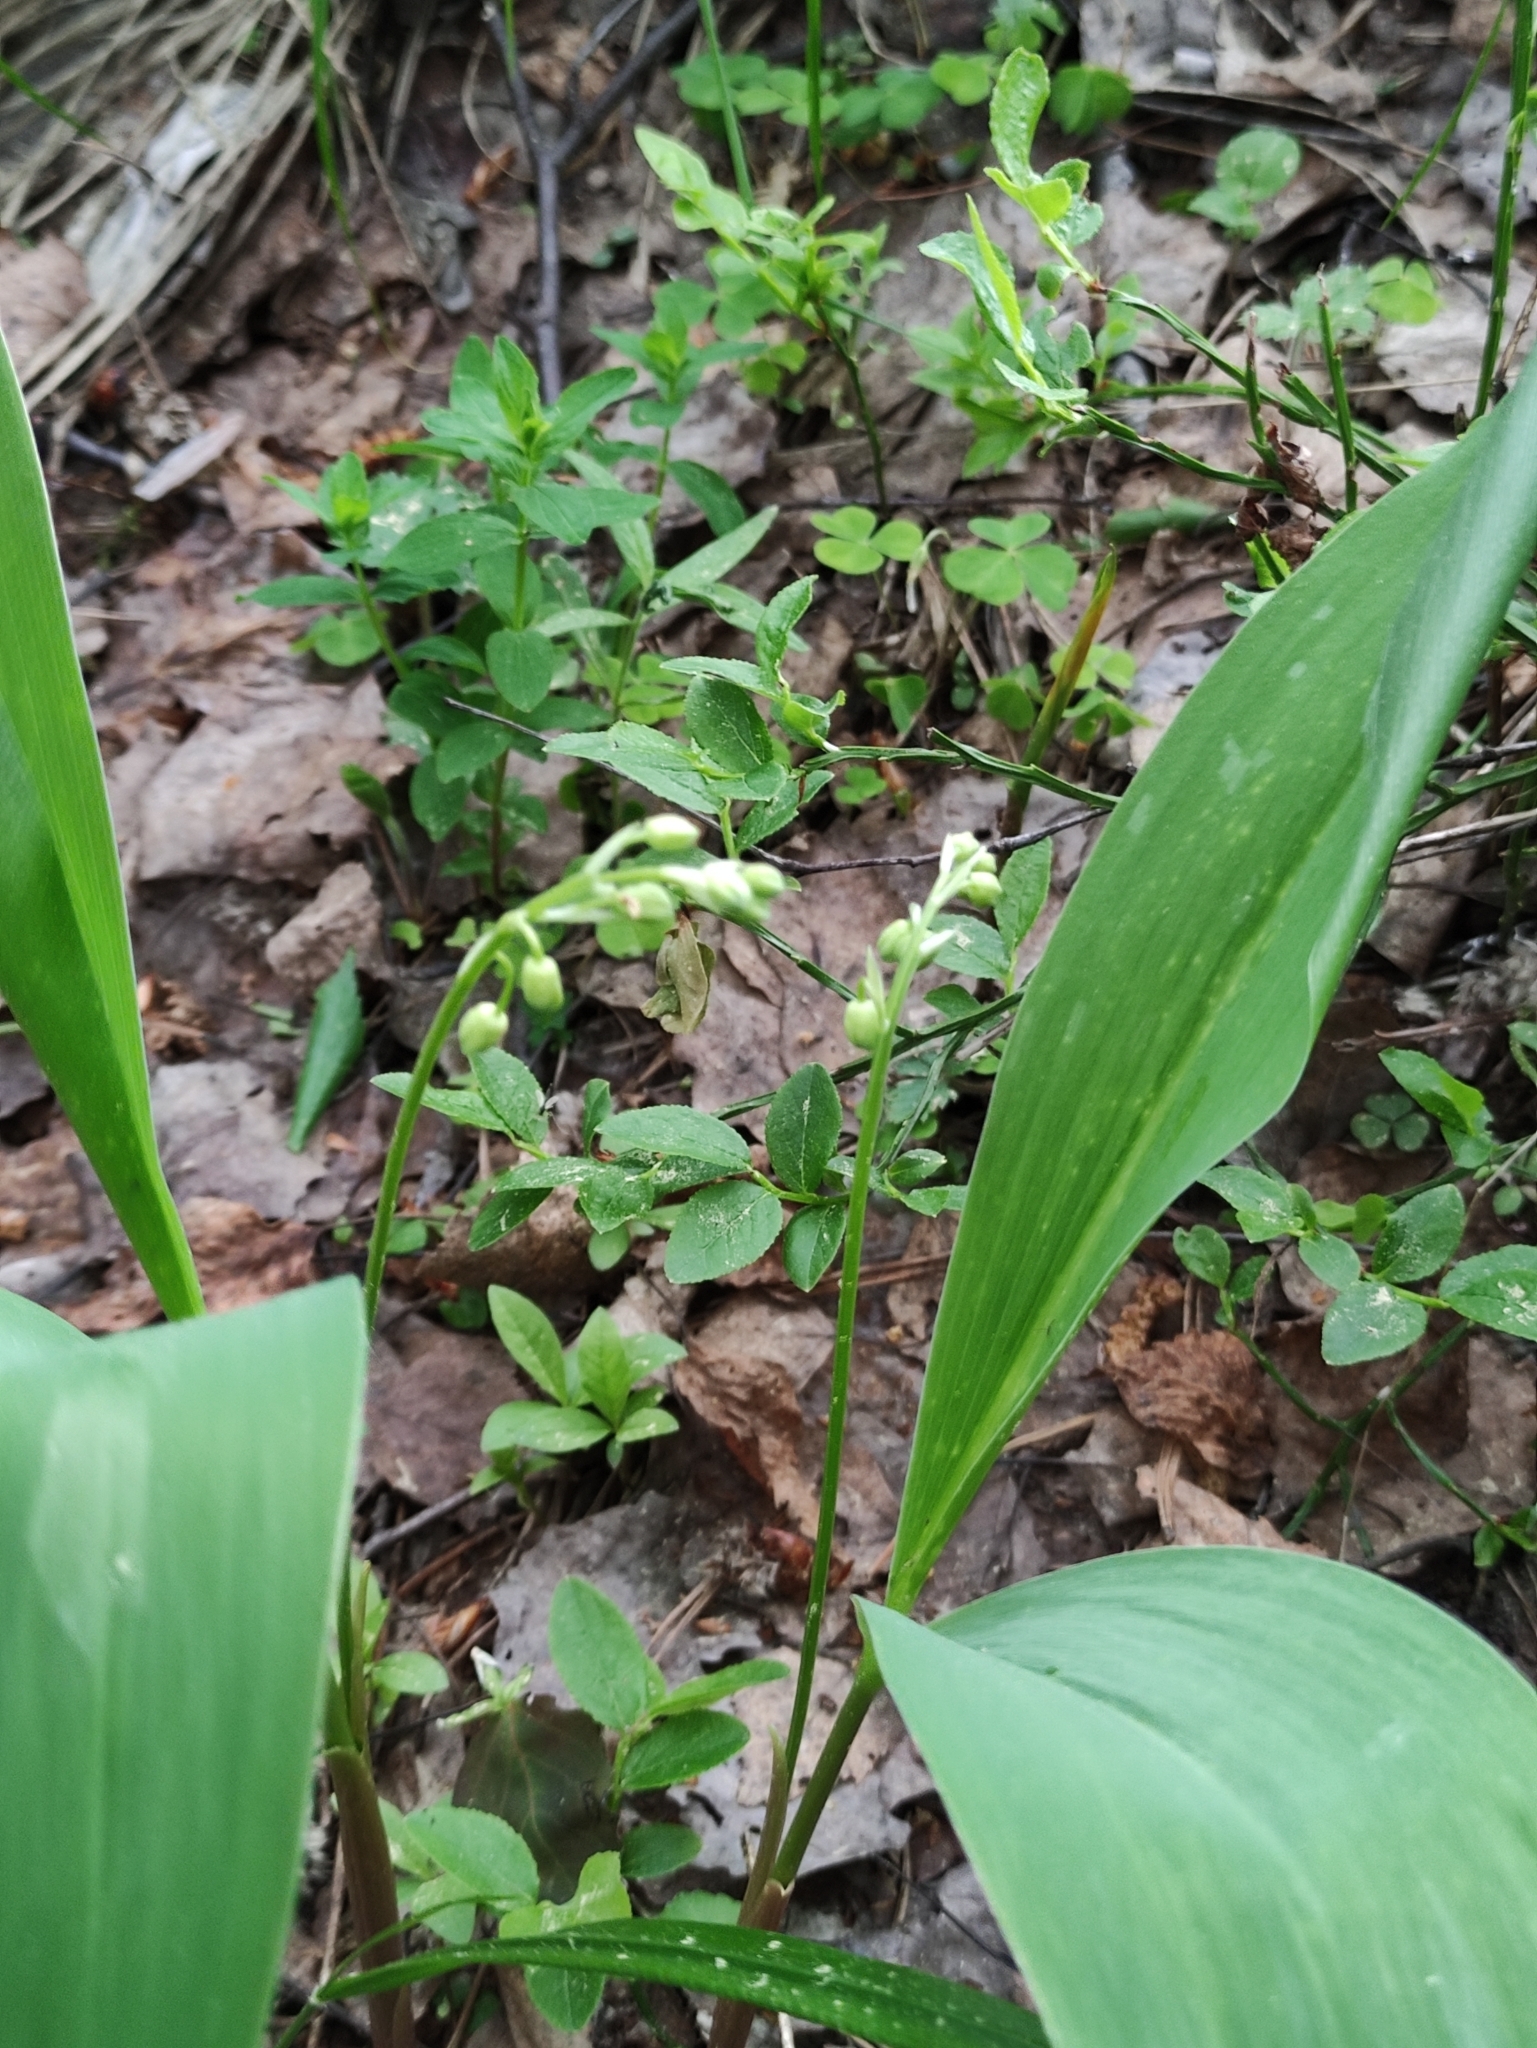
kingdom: Plantae
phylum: Tracheophyta
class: Liliopsida
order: Asparagales
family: Asparagaceae
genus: Convallaria
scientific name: Convallaria majalis
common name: Lily-of-the-valley
